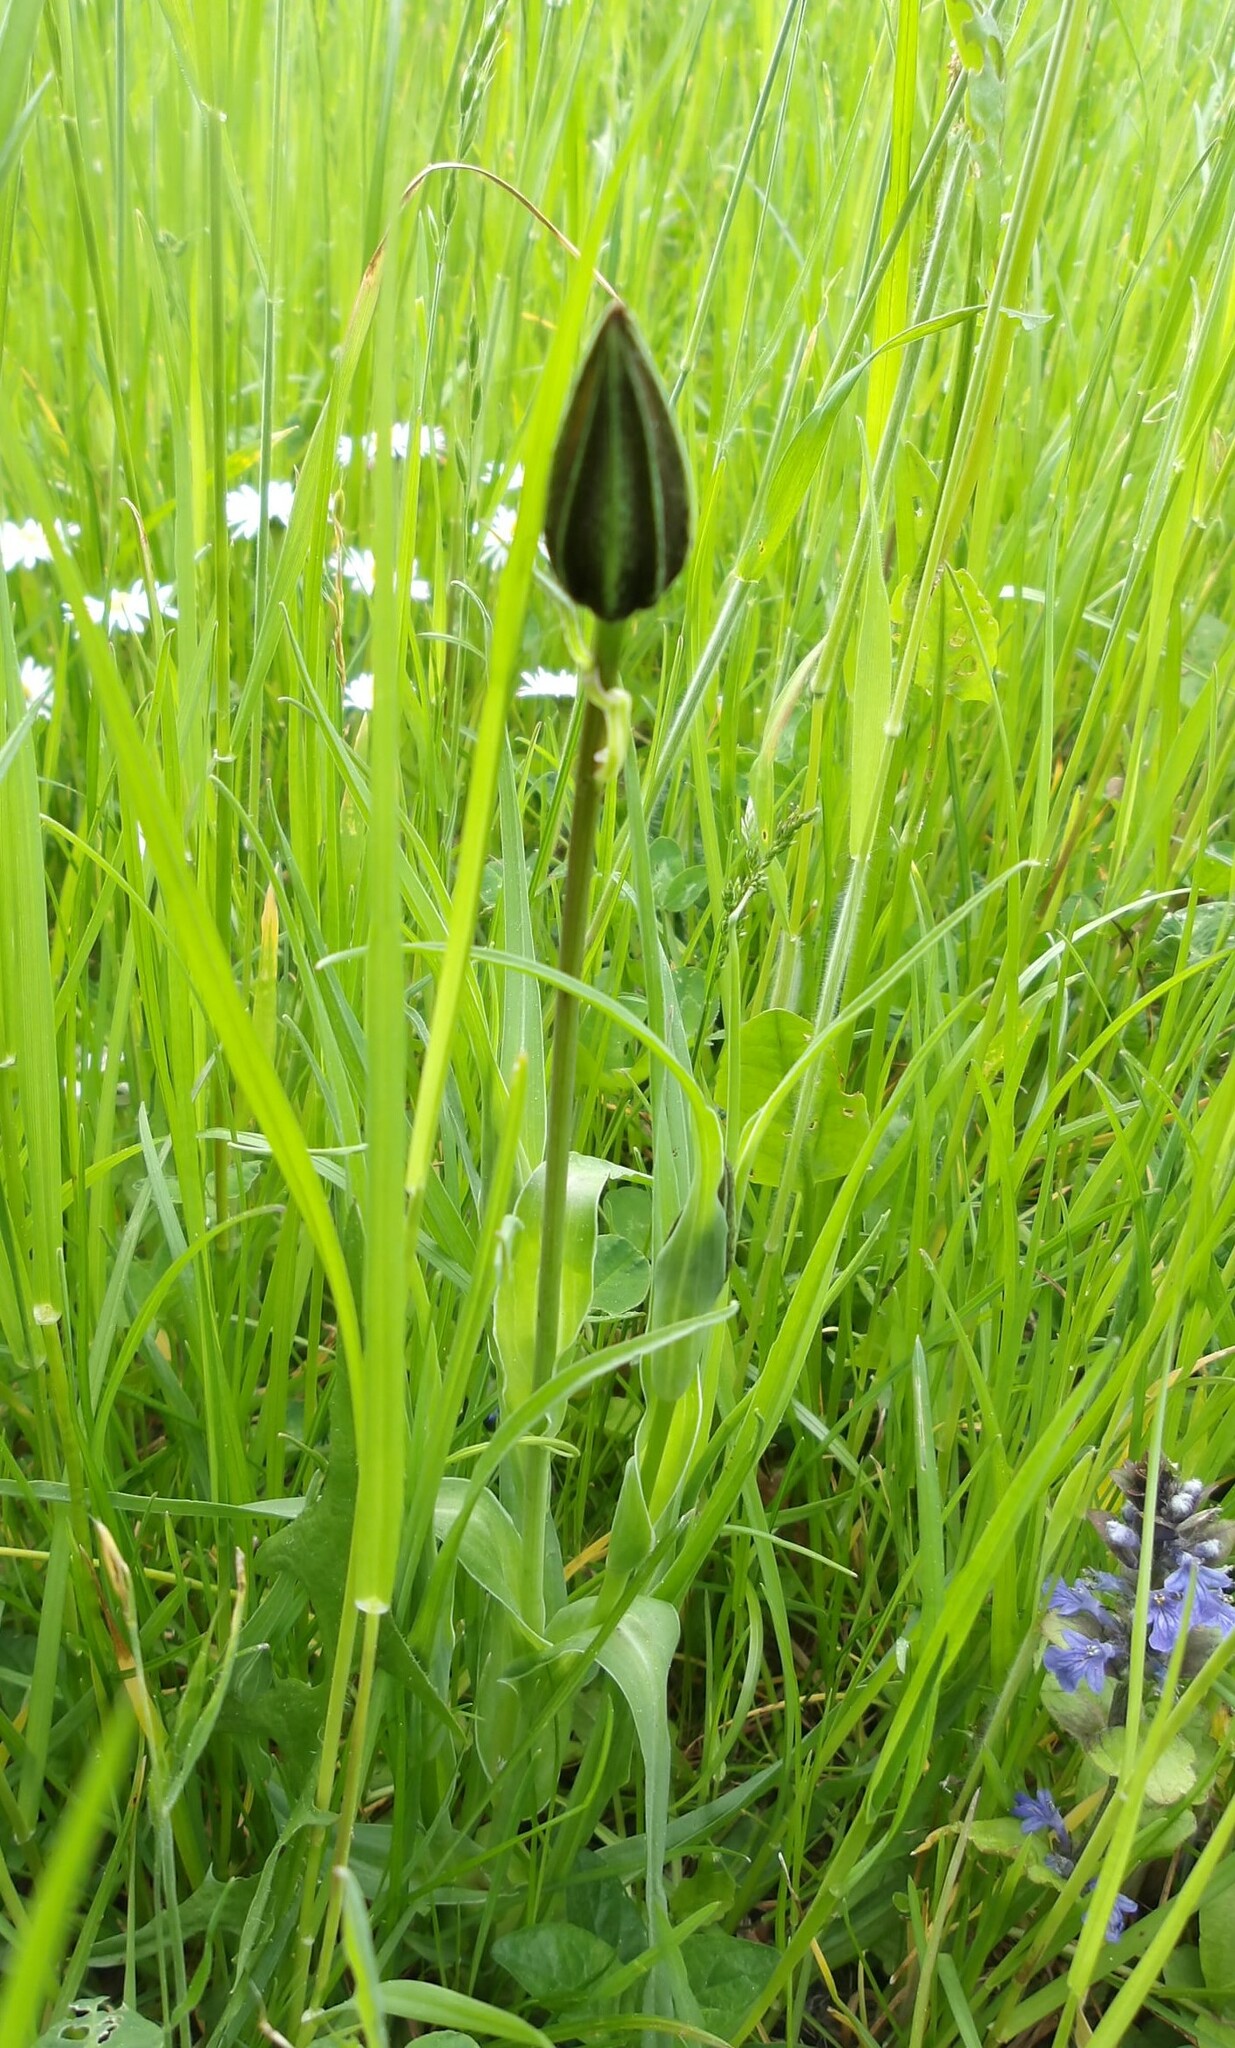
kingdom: Plantae
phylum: Tracheophyta
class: Magnoliopsida
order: Asterales
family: Asteraceae
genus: Tragopogon
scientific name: Tragopogon orientalis
